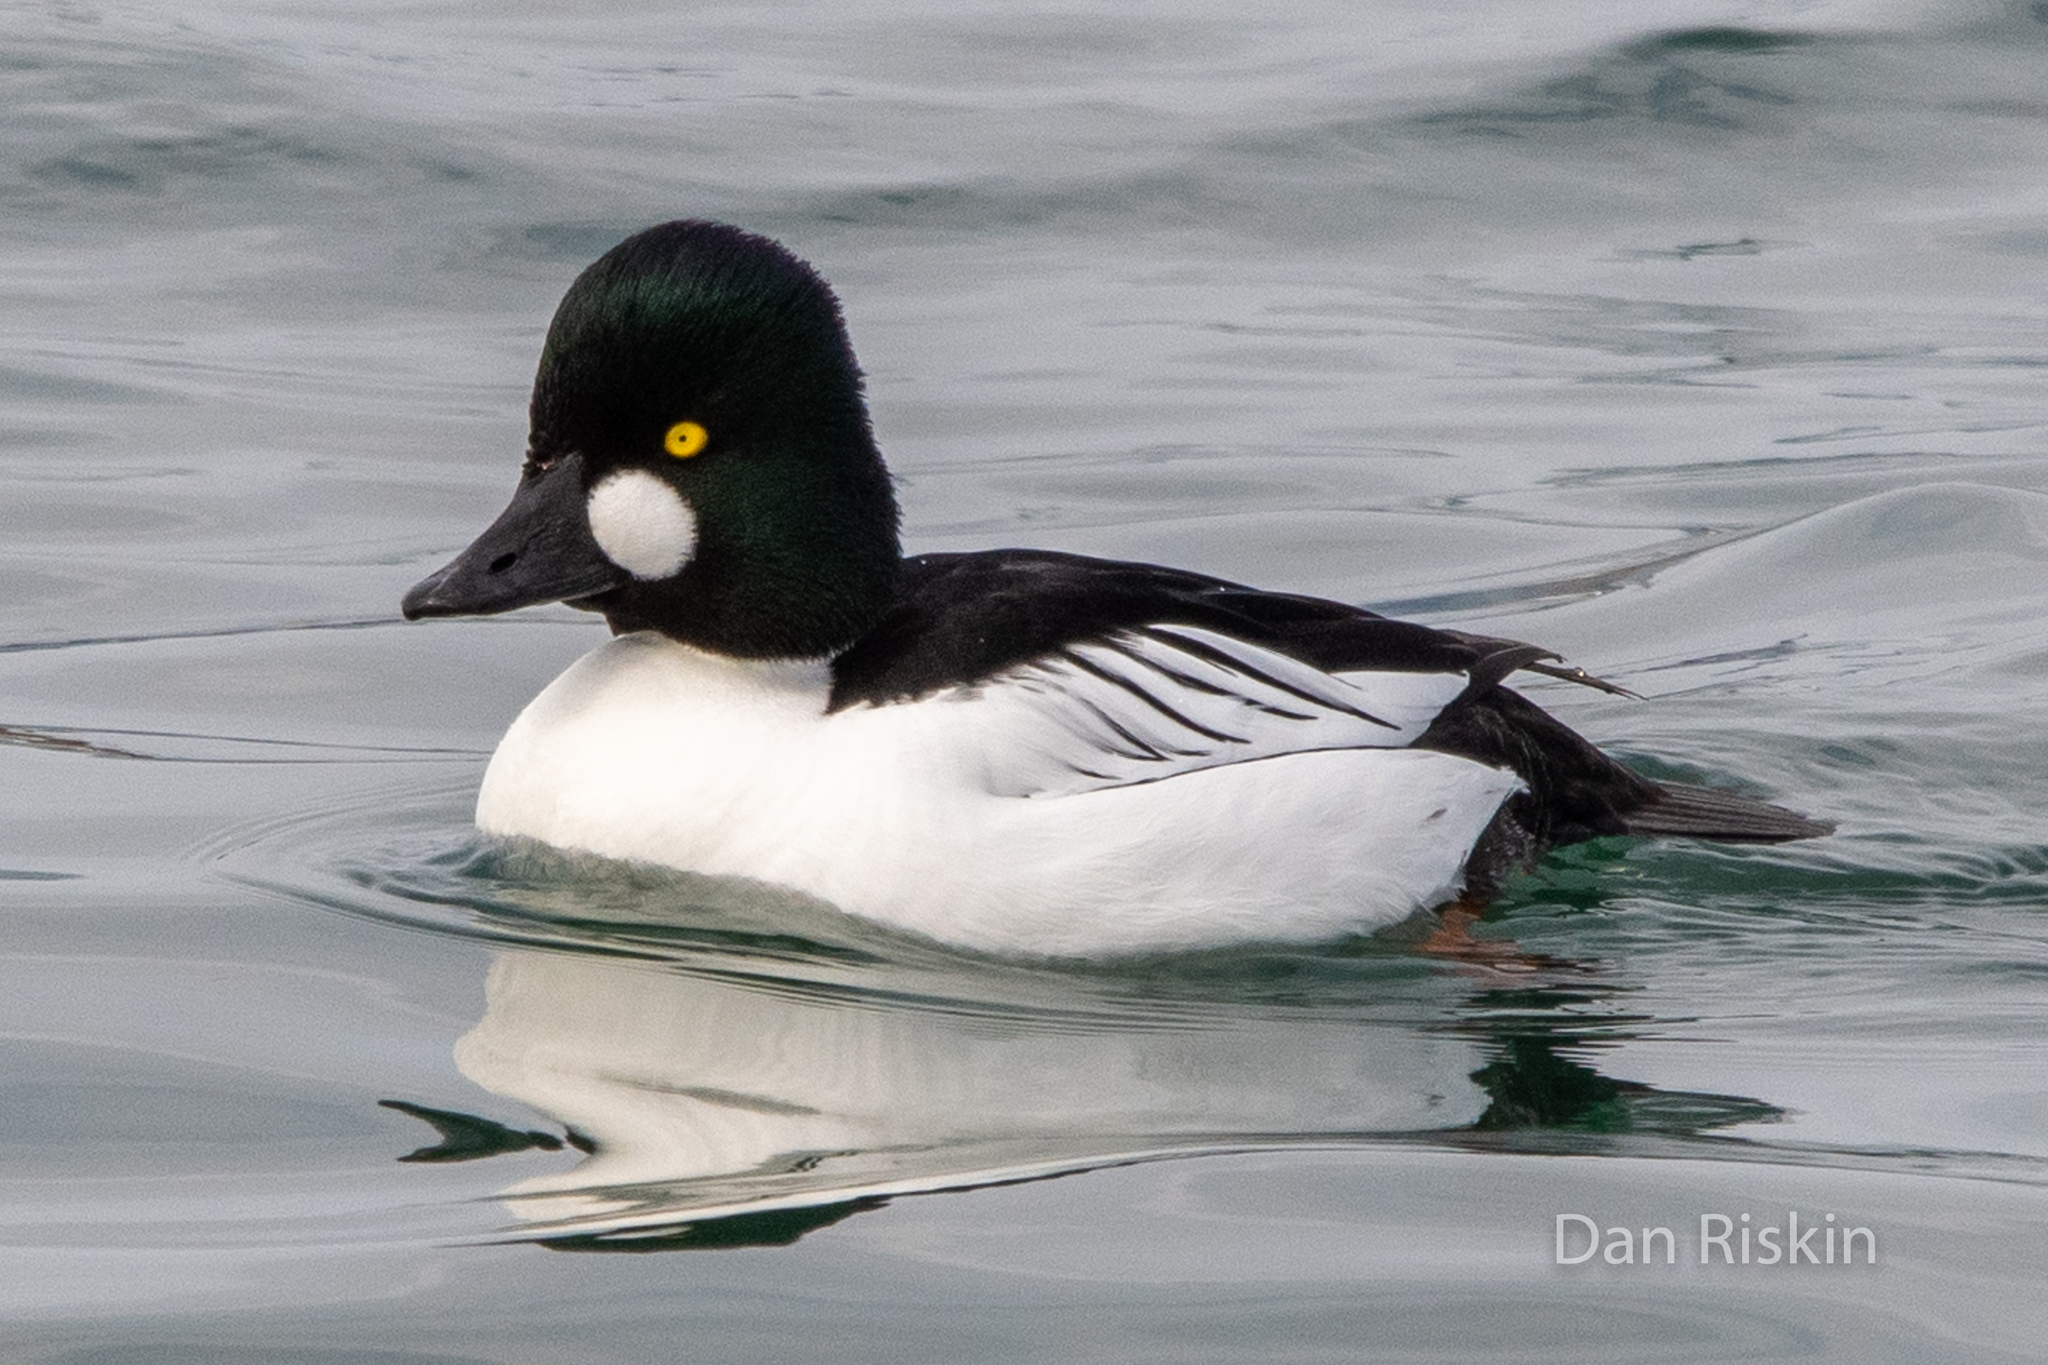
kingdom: Animalia
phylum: Chordata
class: Aves
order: Anseriformes
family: Anatidae
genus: Bucephala
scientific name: Bucephala clangula
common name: Common goldeneye
